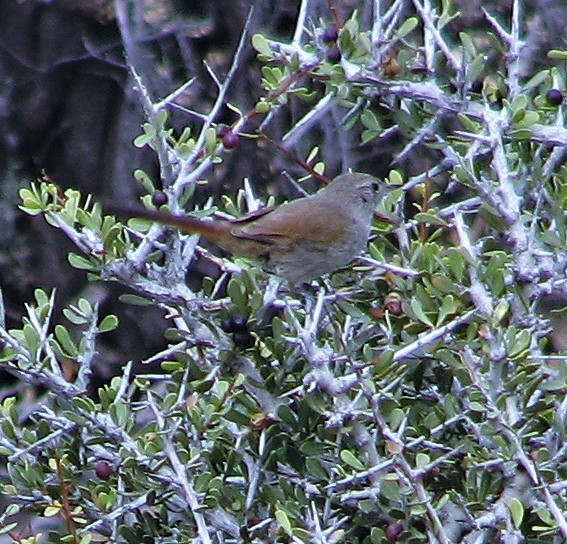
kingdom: Animalia
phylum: Chordata
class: Aves
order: Passeriformes
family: Furnariidae
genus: Asthenes
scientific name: Asthenes pyrrholeuca
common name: Sharp-billed canastero
